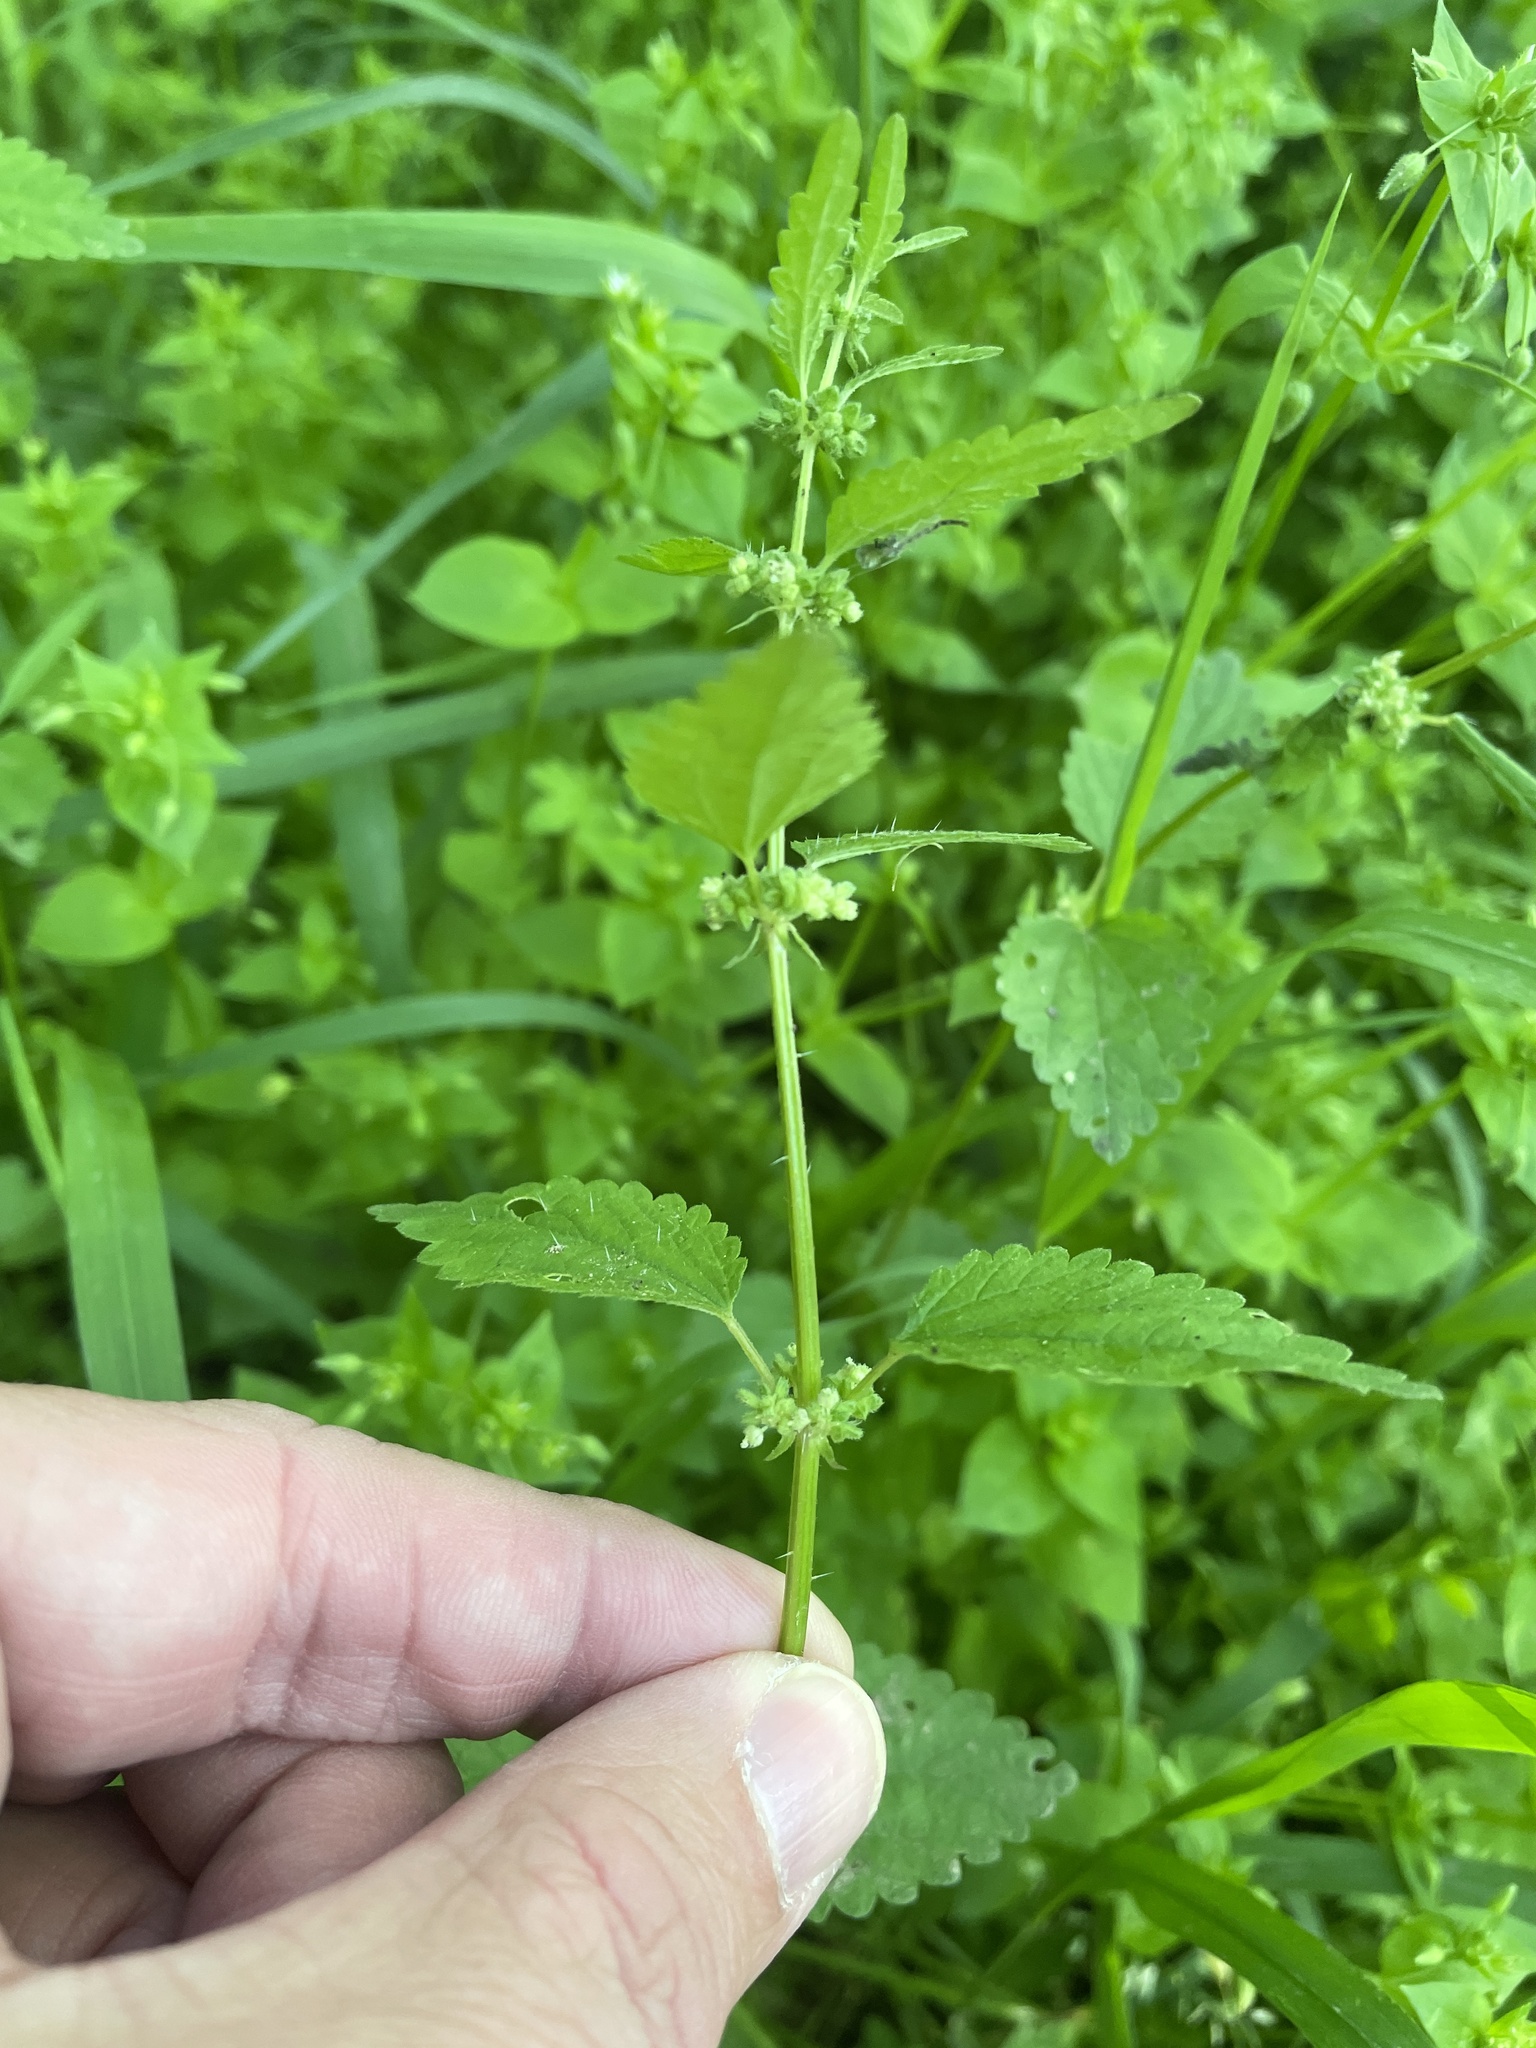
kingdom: Plantae
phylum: Tracheophyta
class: Magnoliopsida
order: Rosales
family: Urticaceae
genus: Urtica
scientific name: Urtica chamaedryoides
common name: Heart-leaf nettle
